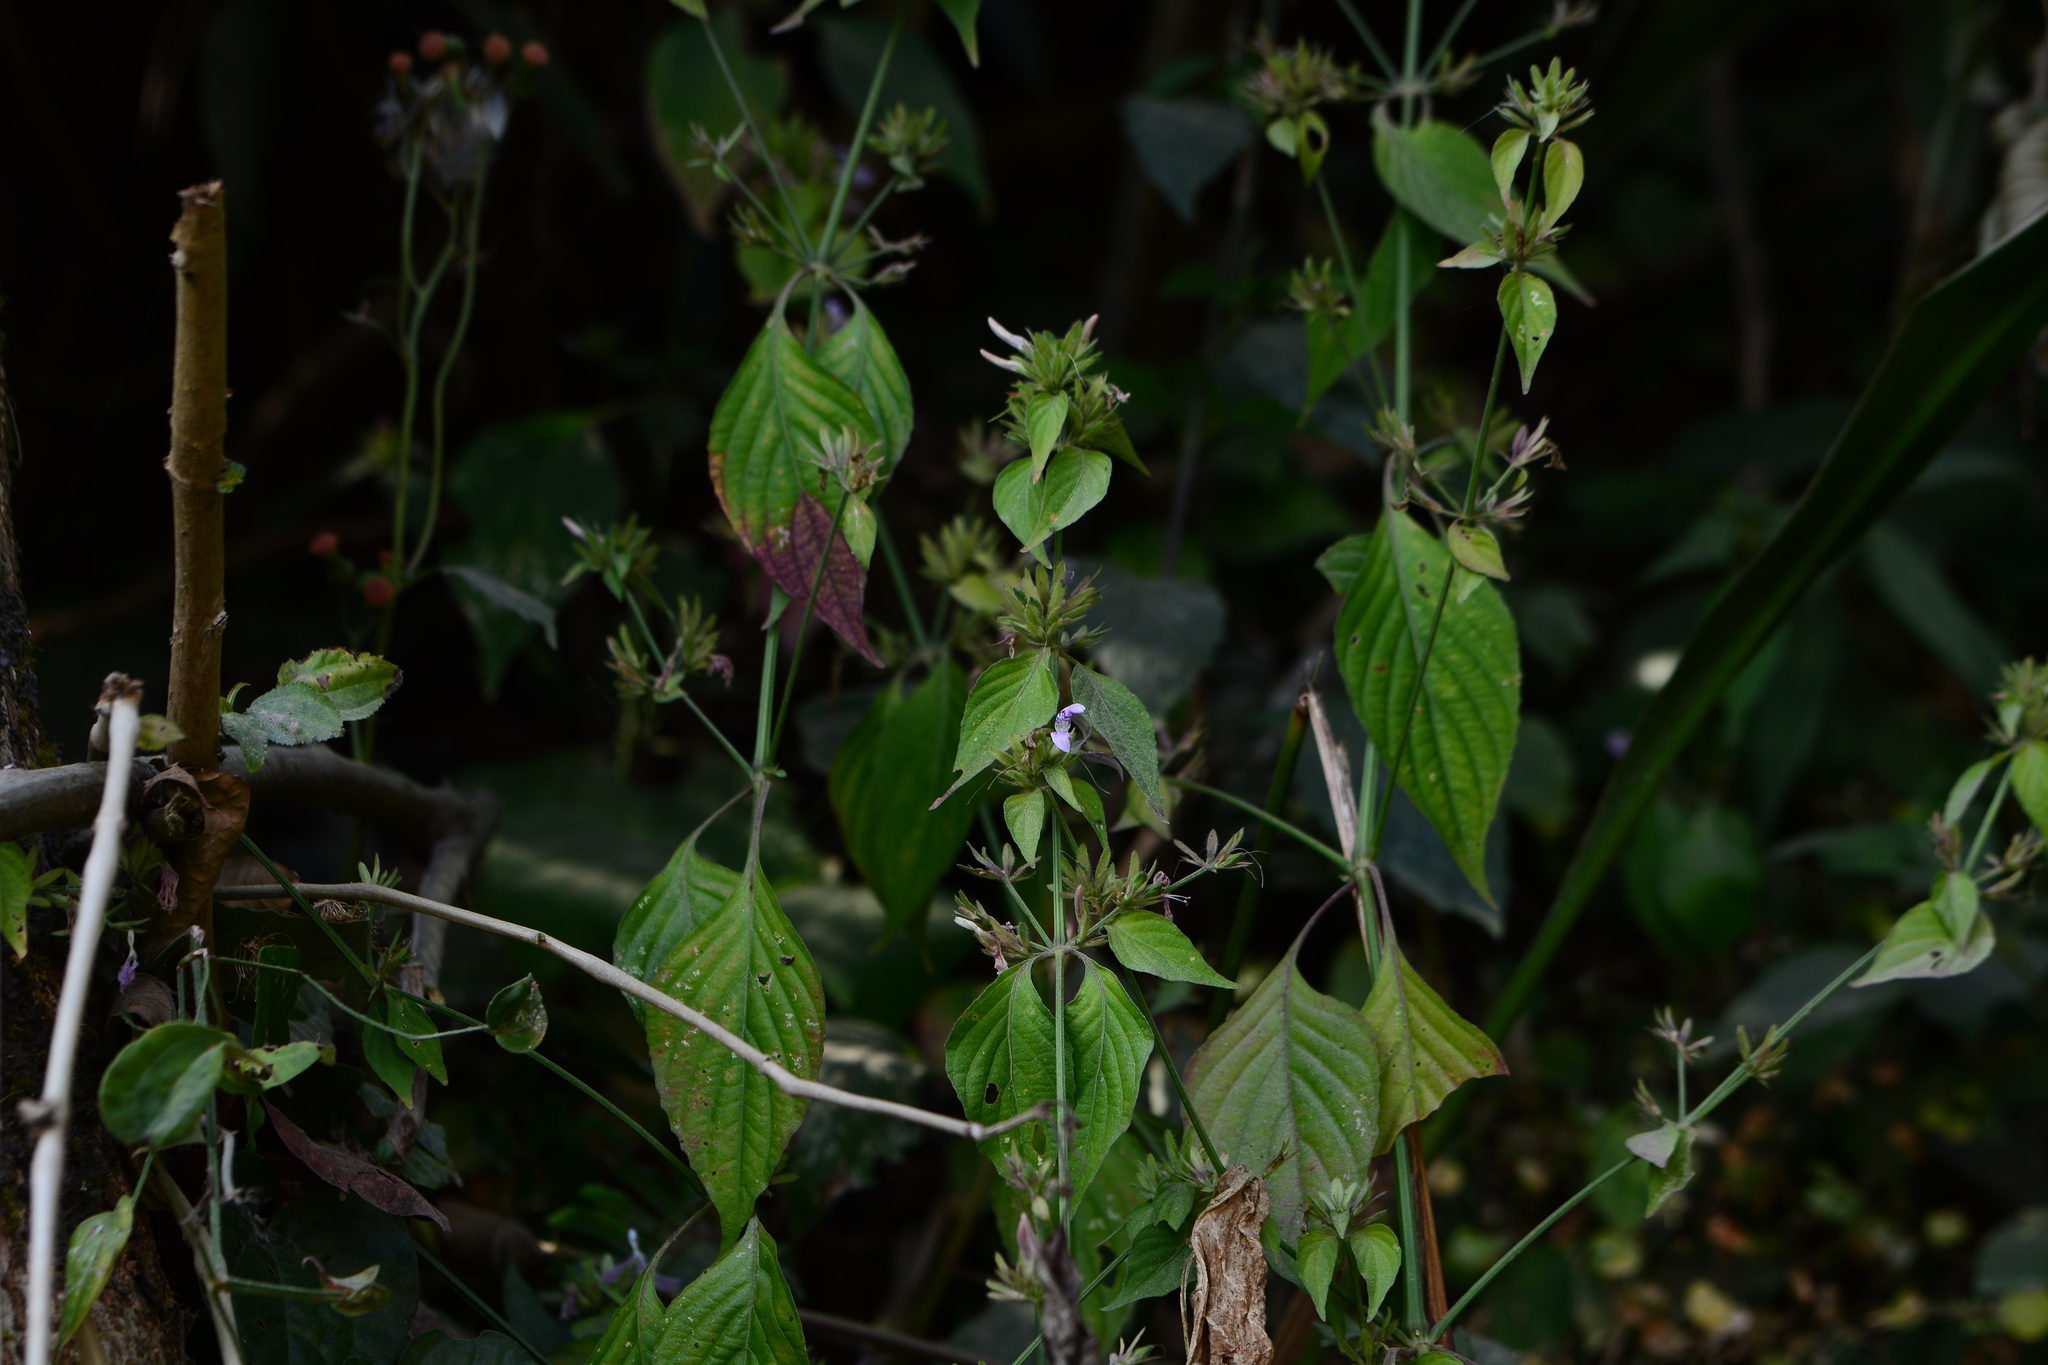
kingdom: Plantae
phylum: Tracheophyta
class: Magnoliopsida
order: Lamiales
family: Acanthaceae
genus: Dicliptera
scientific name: Dicliptera chinensis
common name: Chinese foldwing
